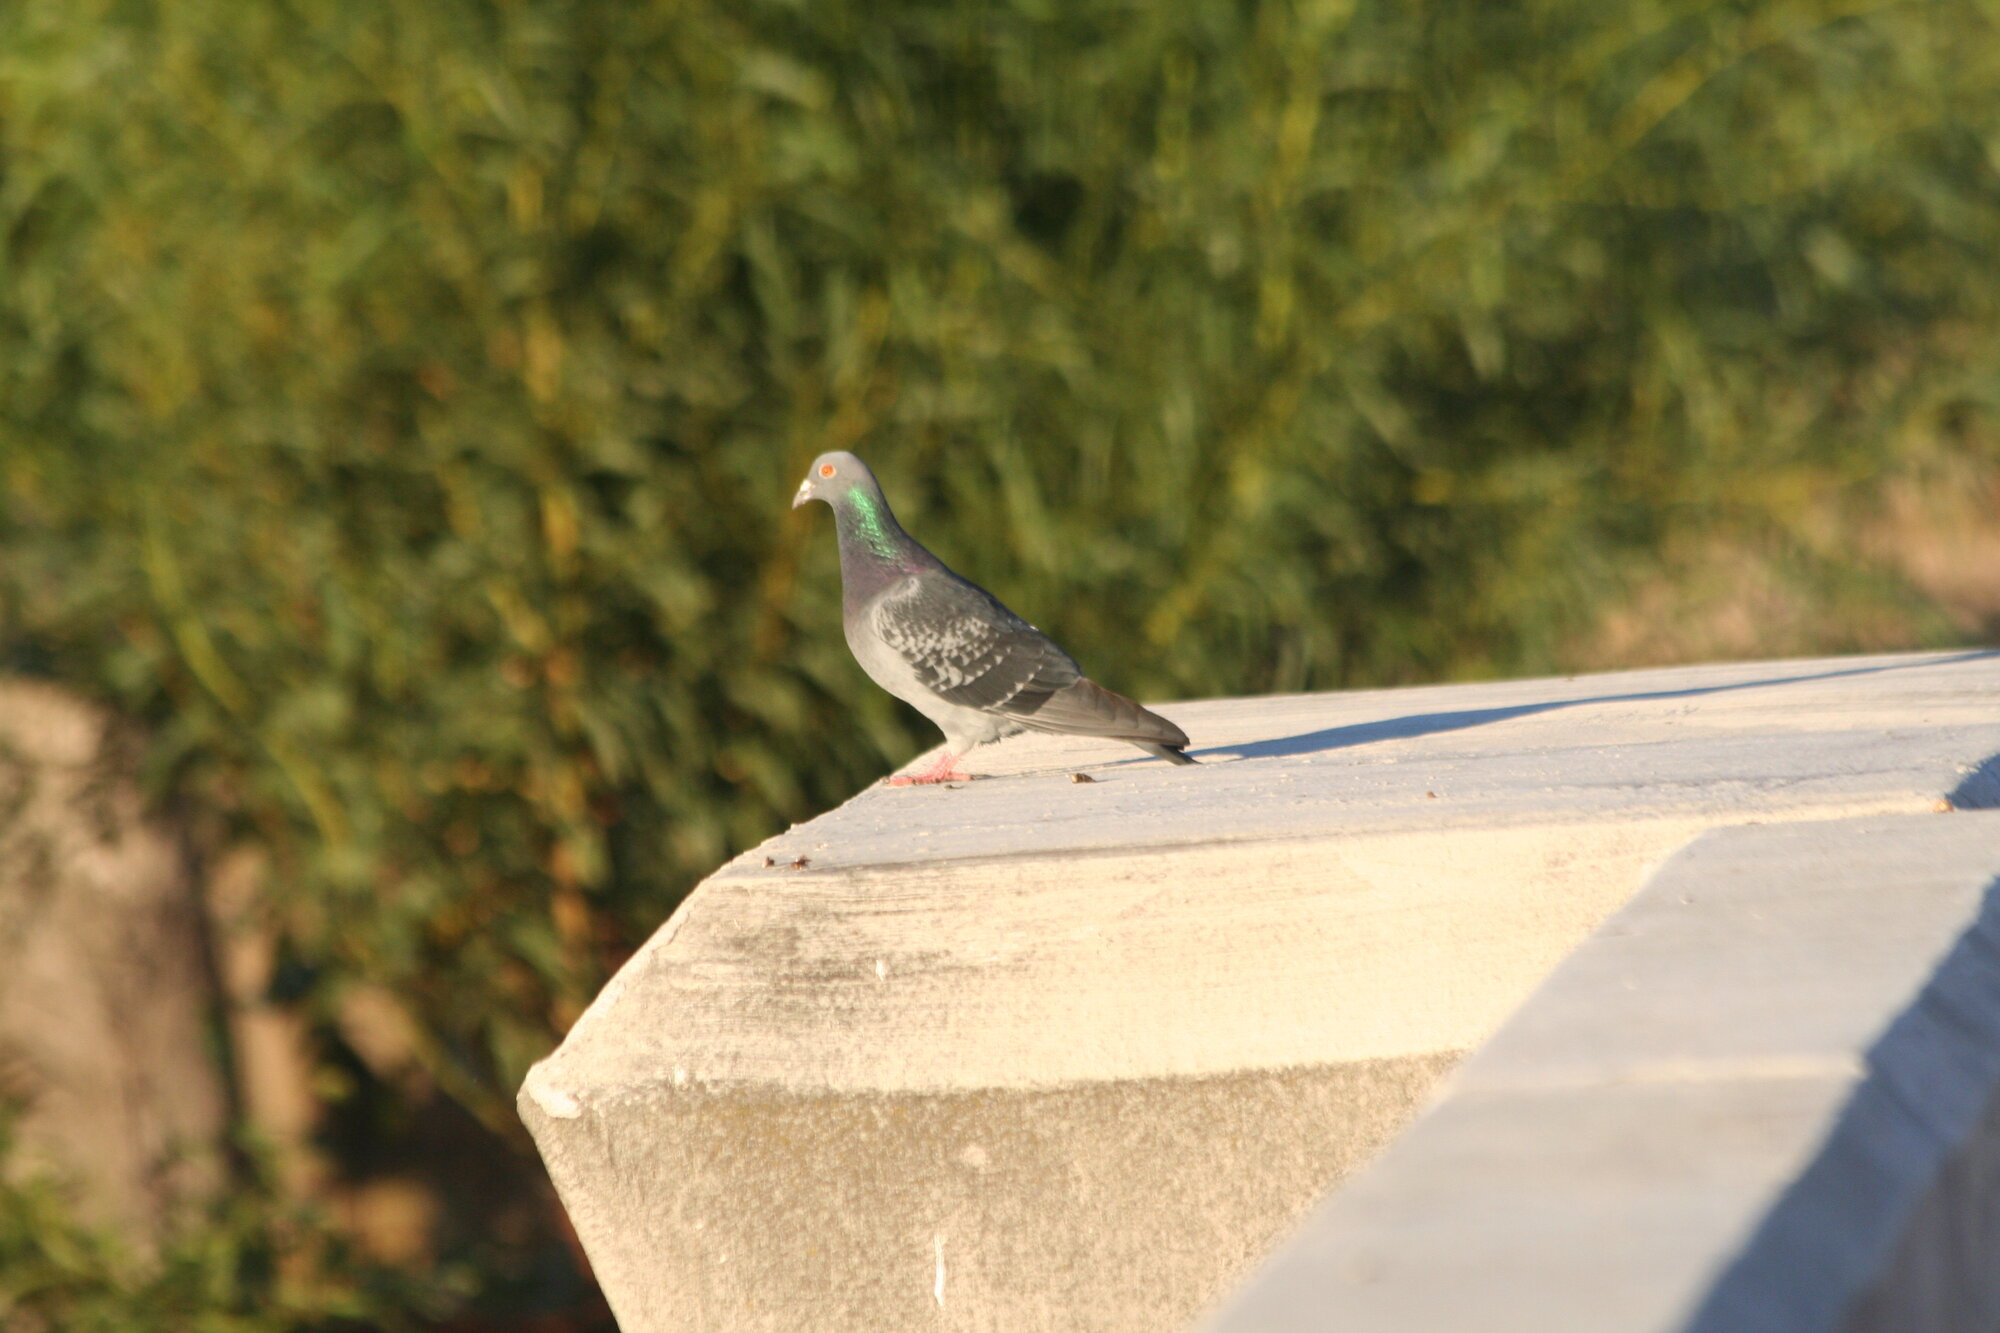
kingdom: Animalia
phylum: Chordata
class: Aves
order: Columbiformes
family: Columbidae
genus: Columba
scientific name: Columba livia
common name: Rock pigeon
